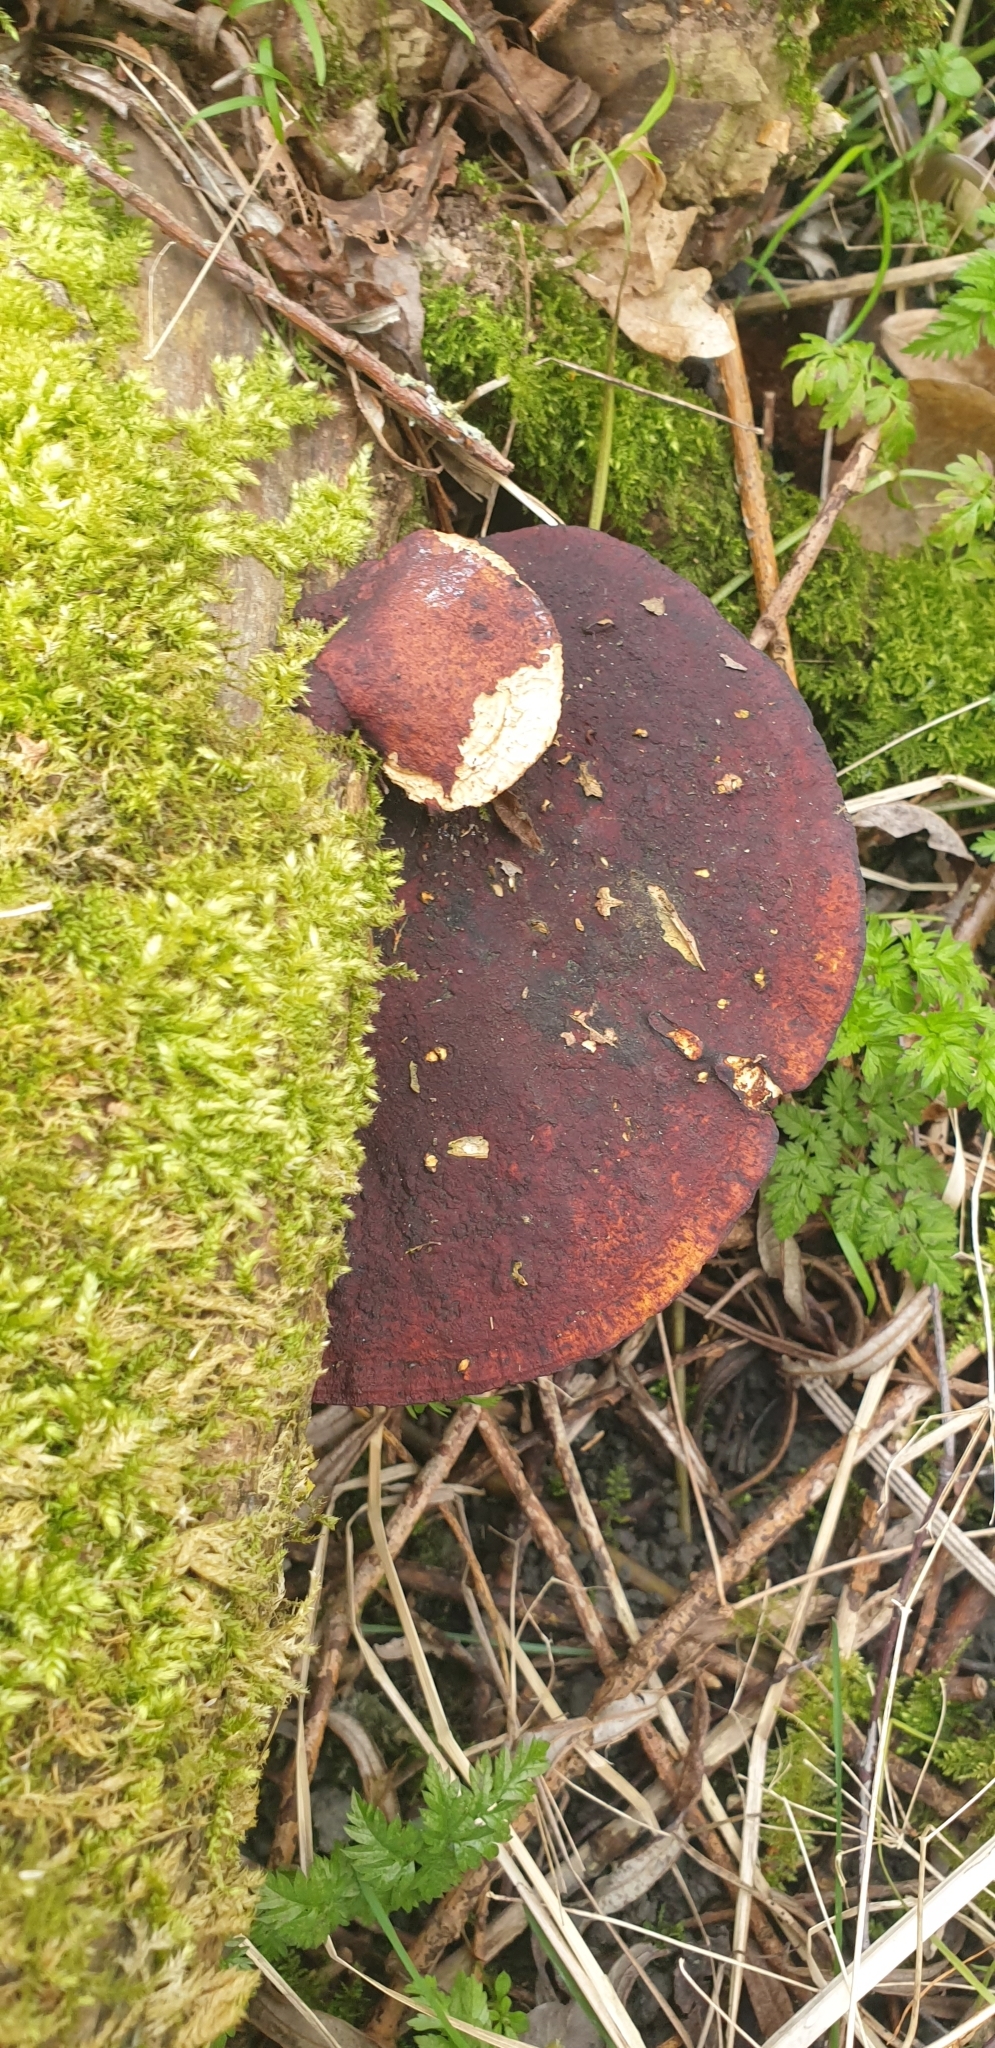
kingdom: Fungi
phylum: Basidiomycota
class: Agaricomycetes
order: Polyporales
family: Polyporaceae
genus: Daedaleopsis
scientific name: Daedaleopsis confragosa
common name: Blushing bracket
